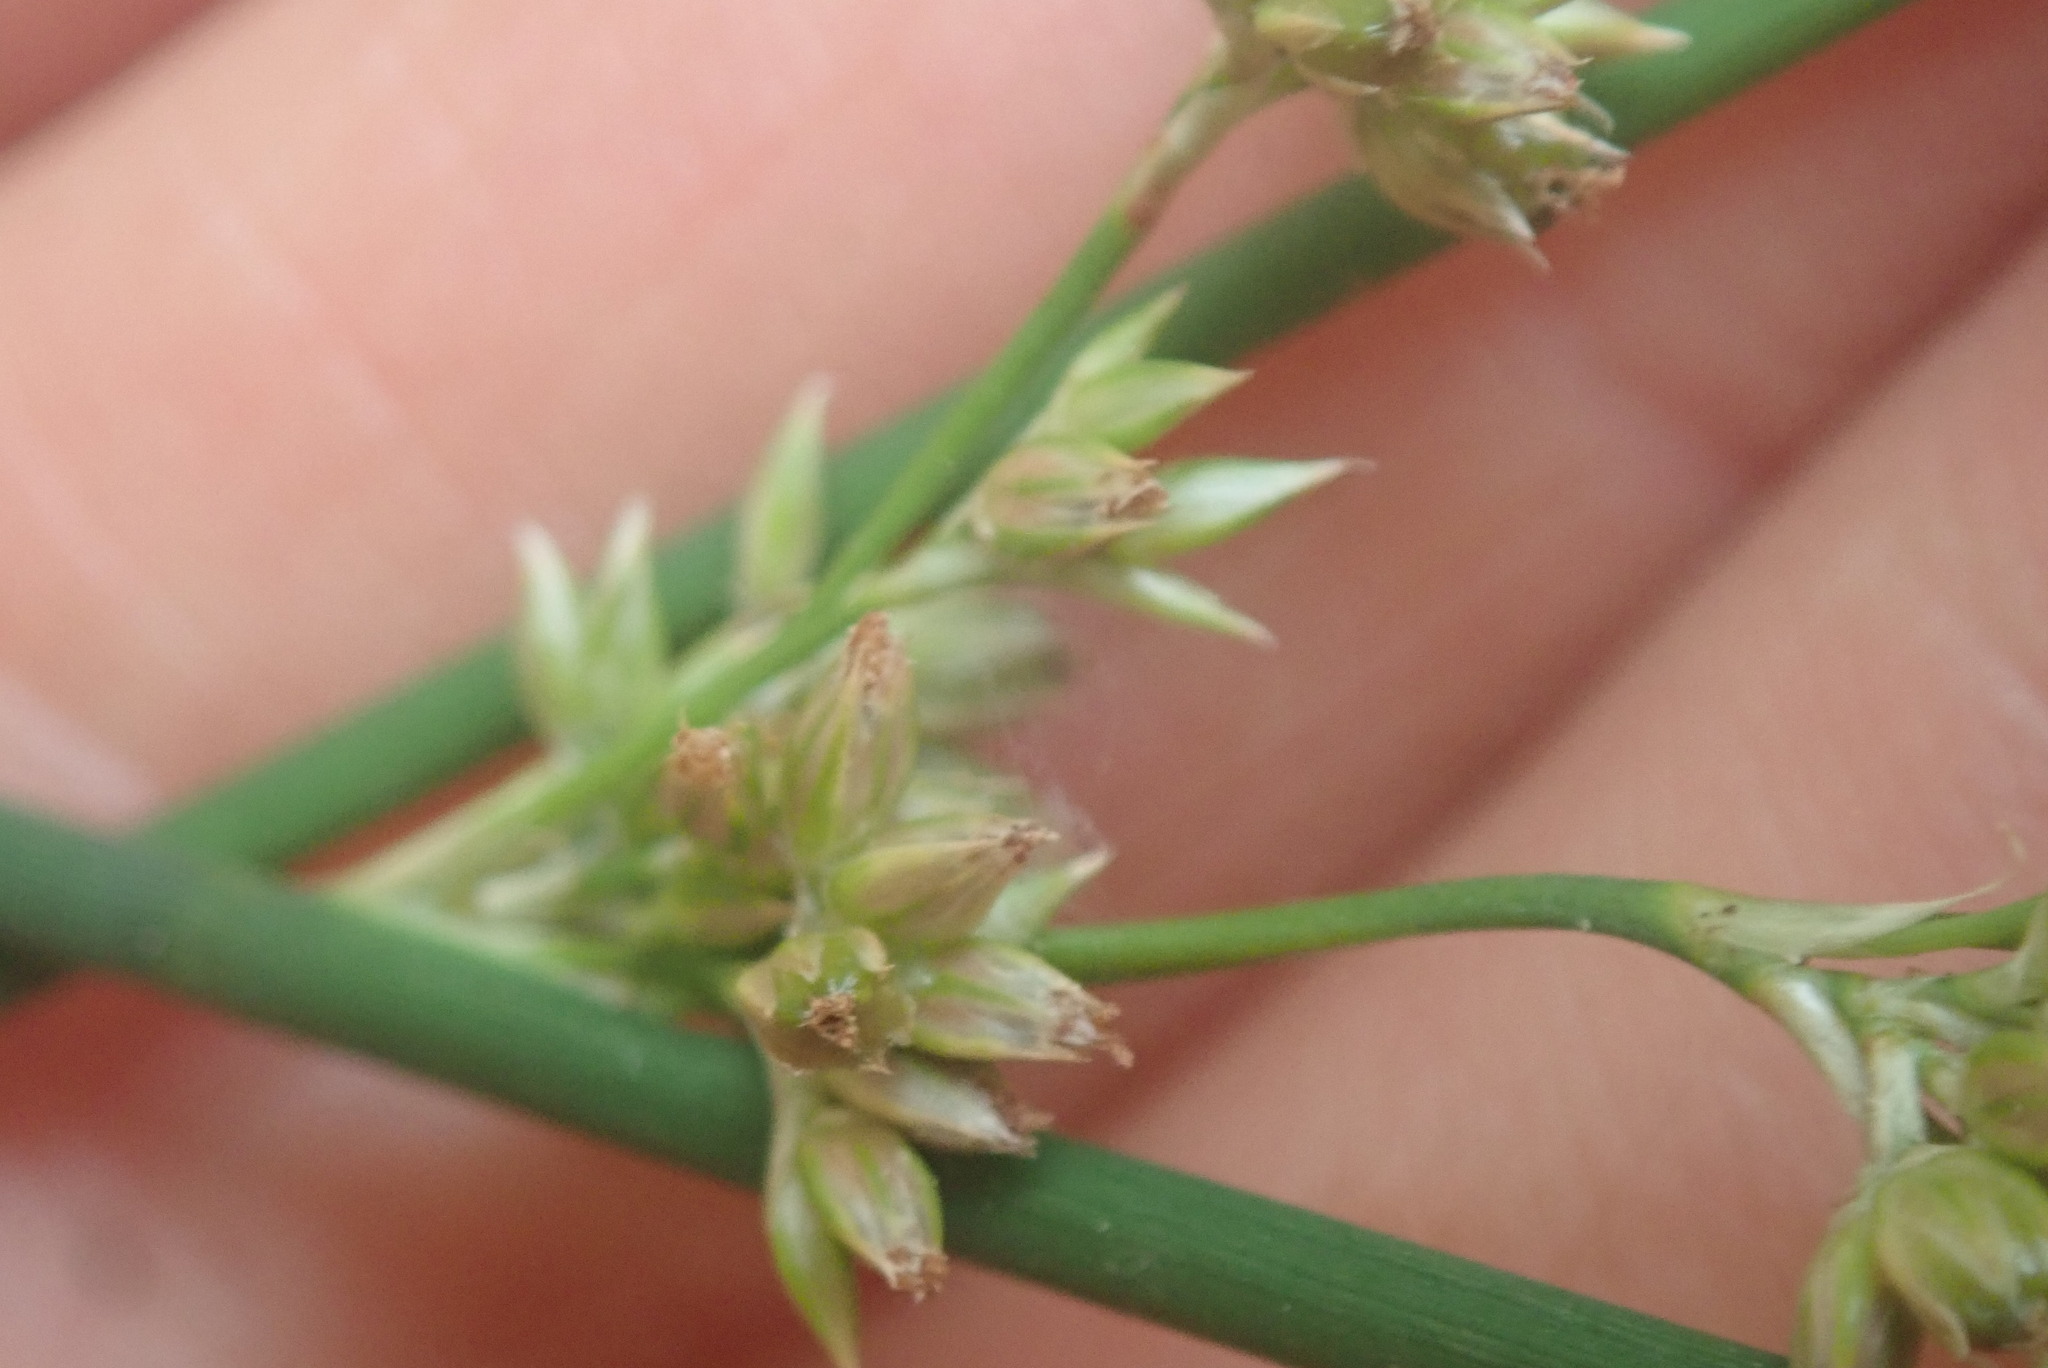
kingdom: Plantae
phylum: Tracheophyta
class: Liliopsida
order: Poales
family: Juncaceae
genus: Juncus
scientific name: Juncus australis
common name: Austral rush
